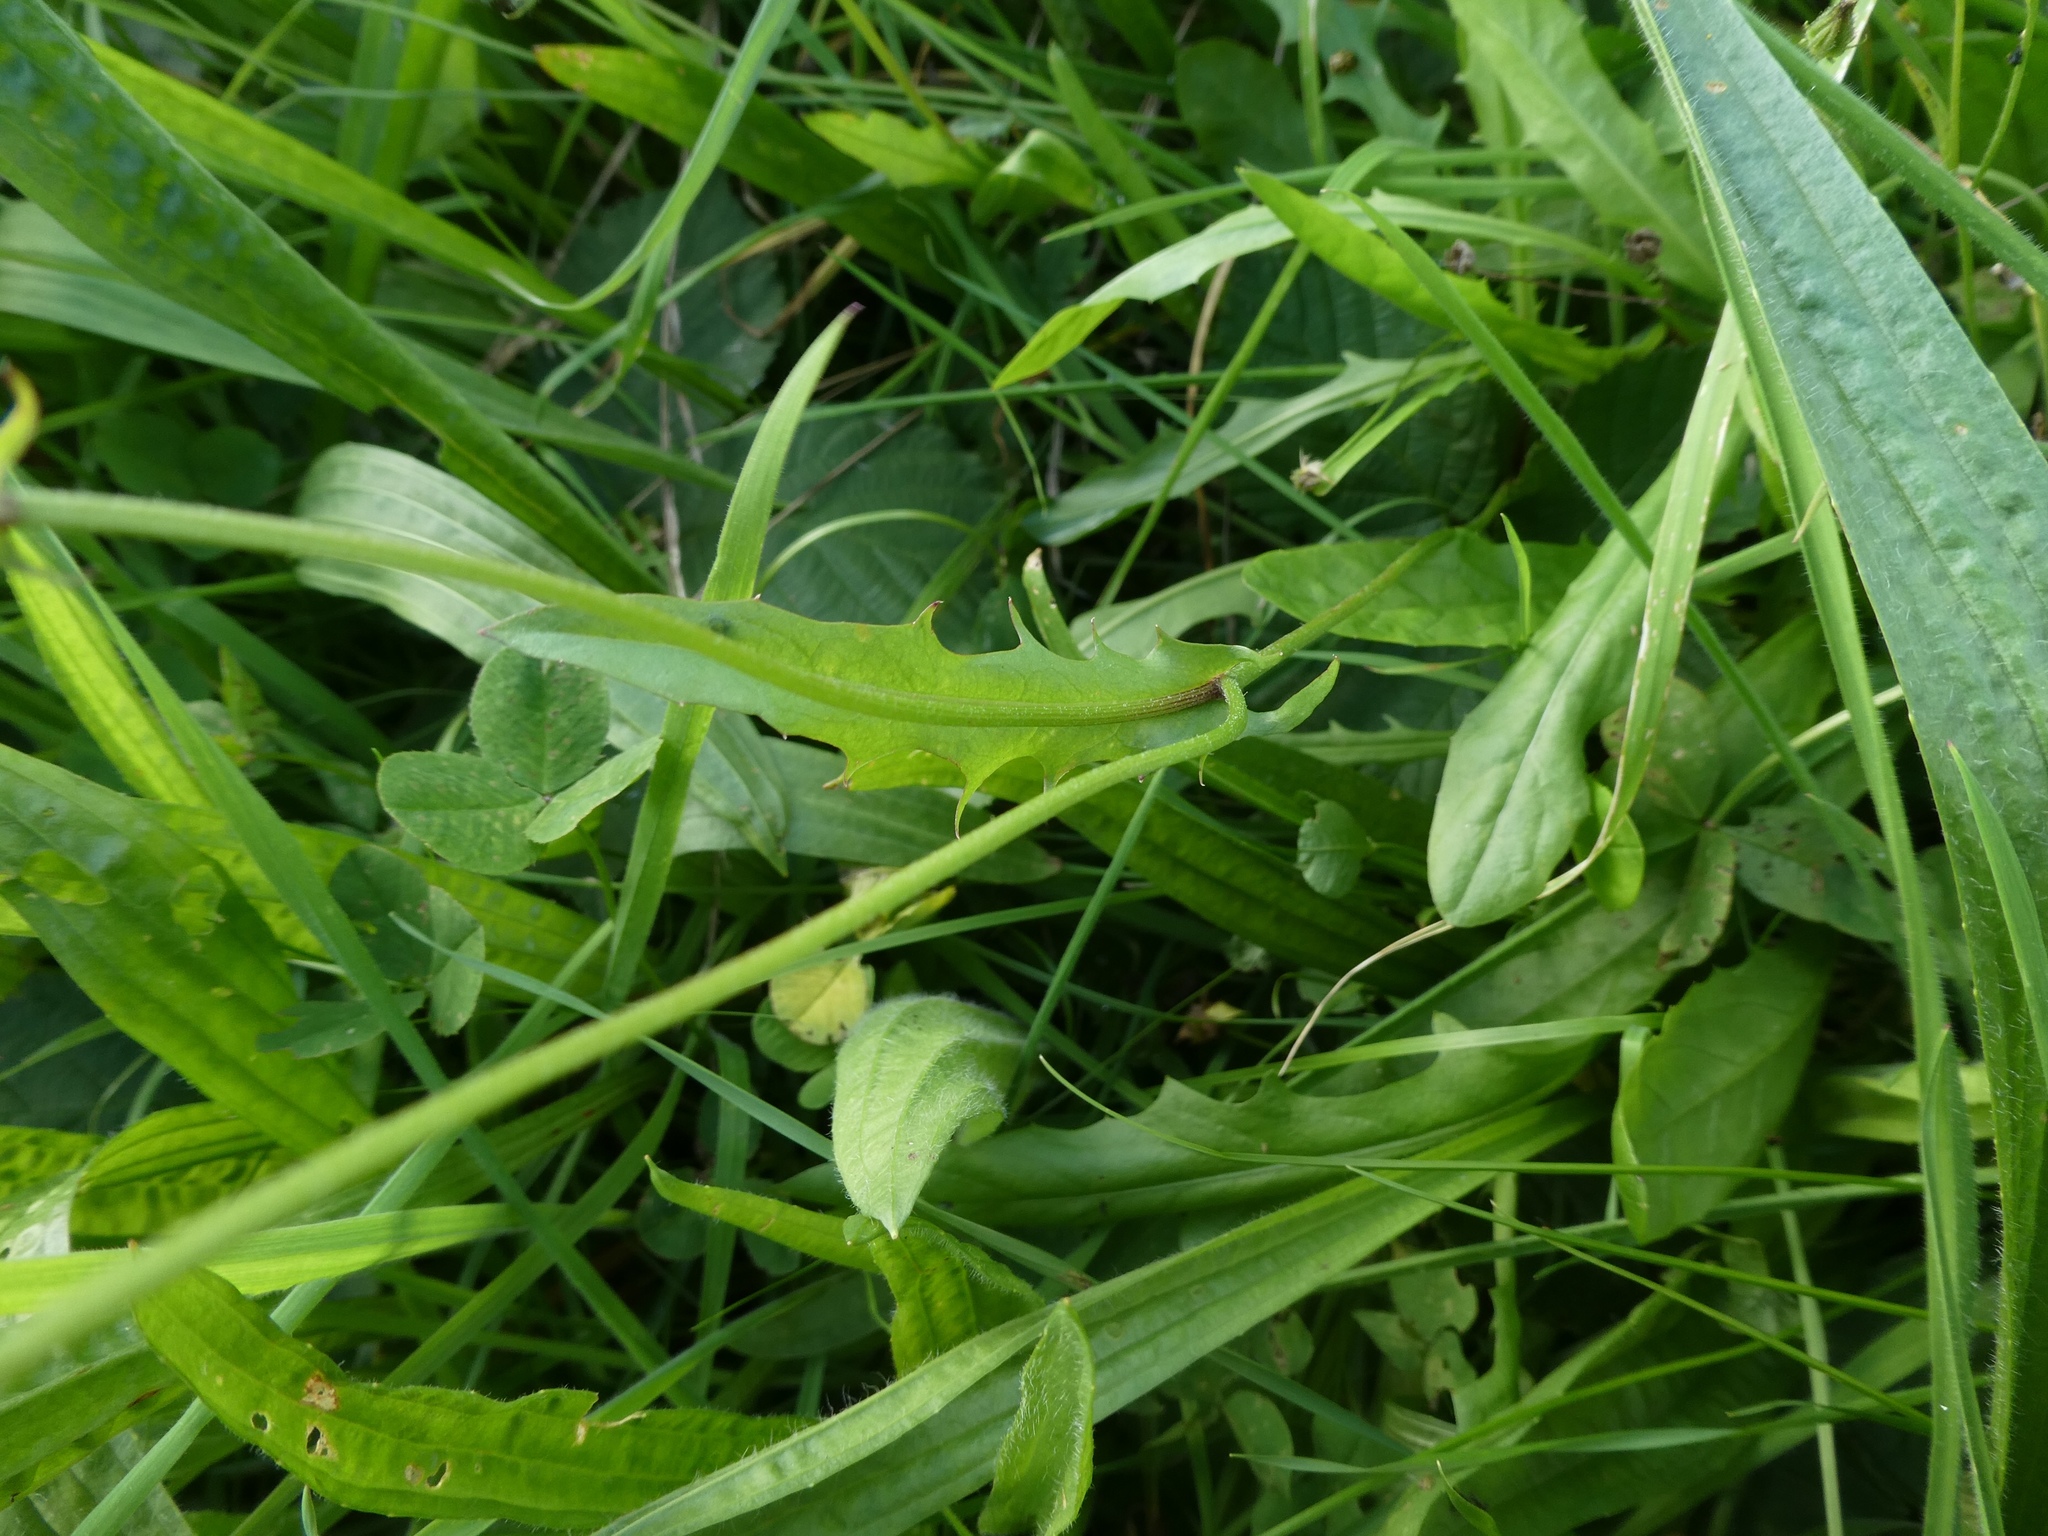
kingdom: Plantae
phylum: Tracheophyta
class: Magnoliopsida
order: Asterales
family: Asteraceae
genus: Crepis
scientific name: Crepis capillaris
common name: Smooth hawksbeard
